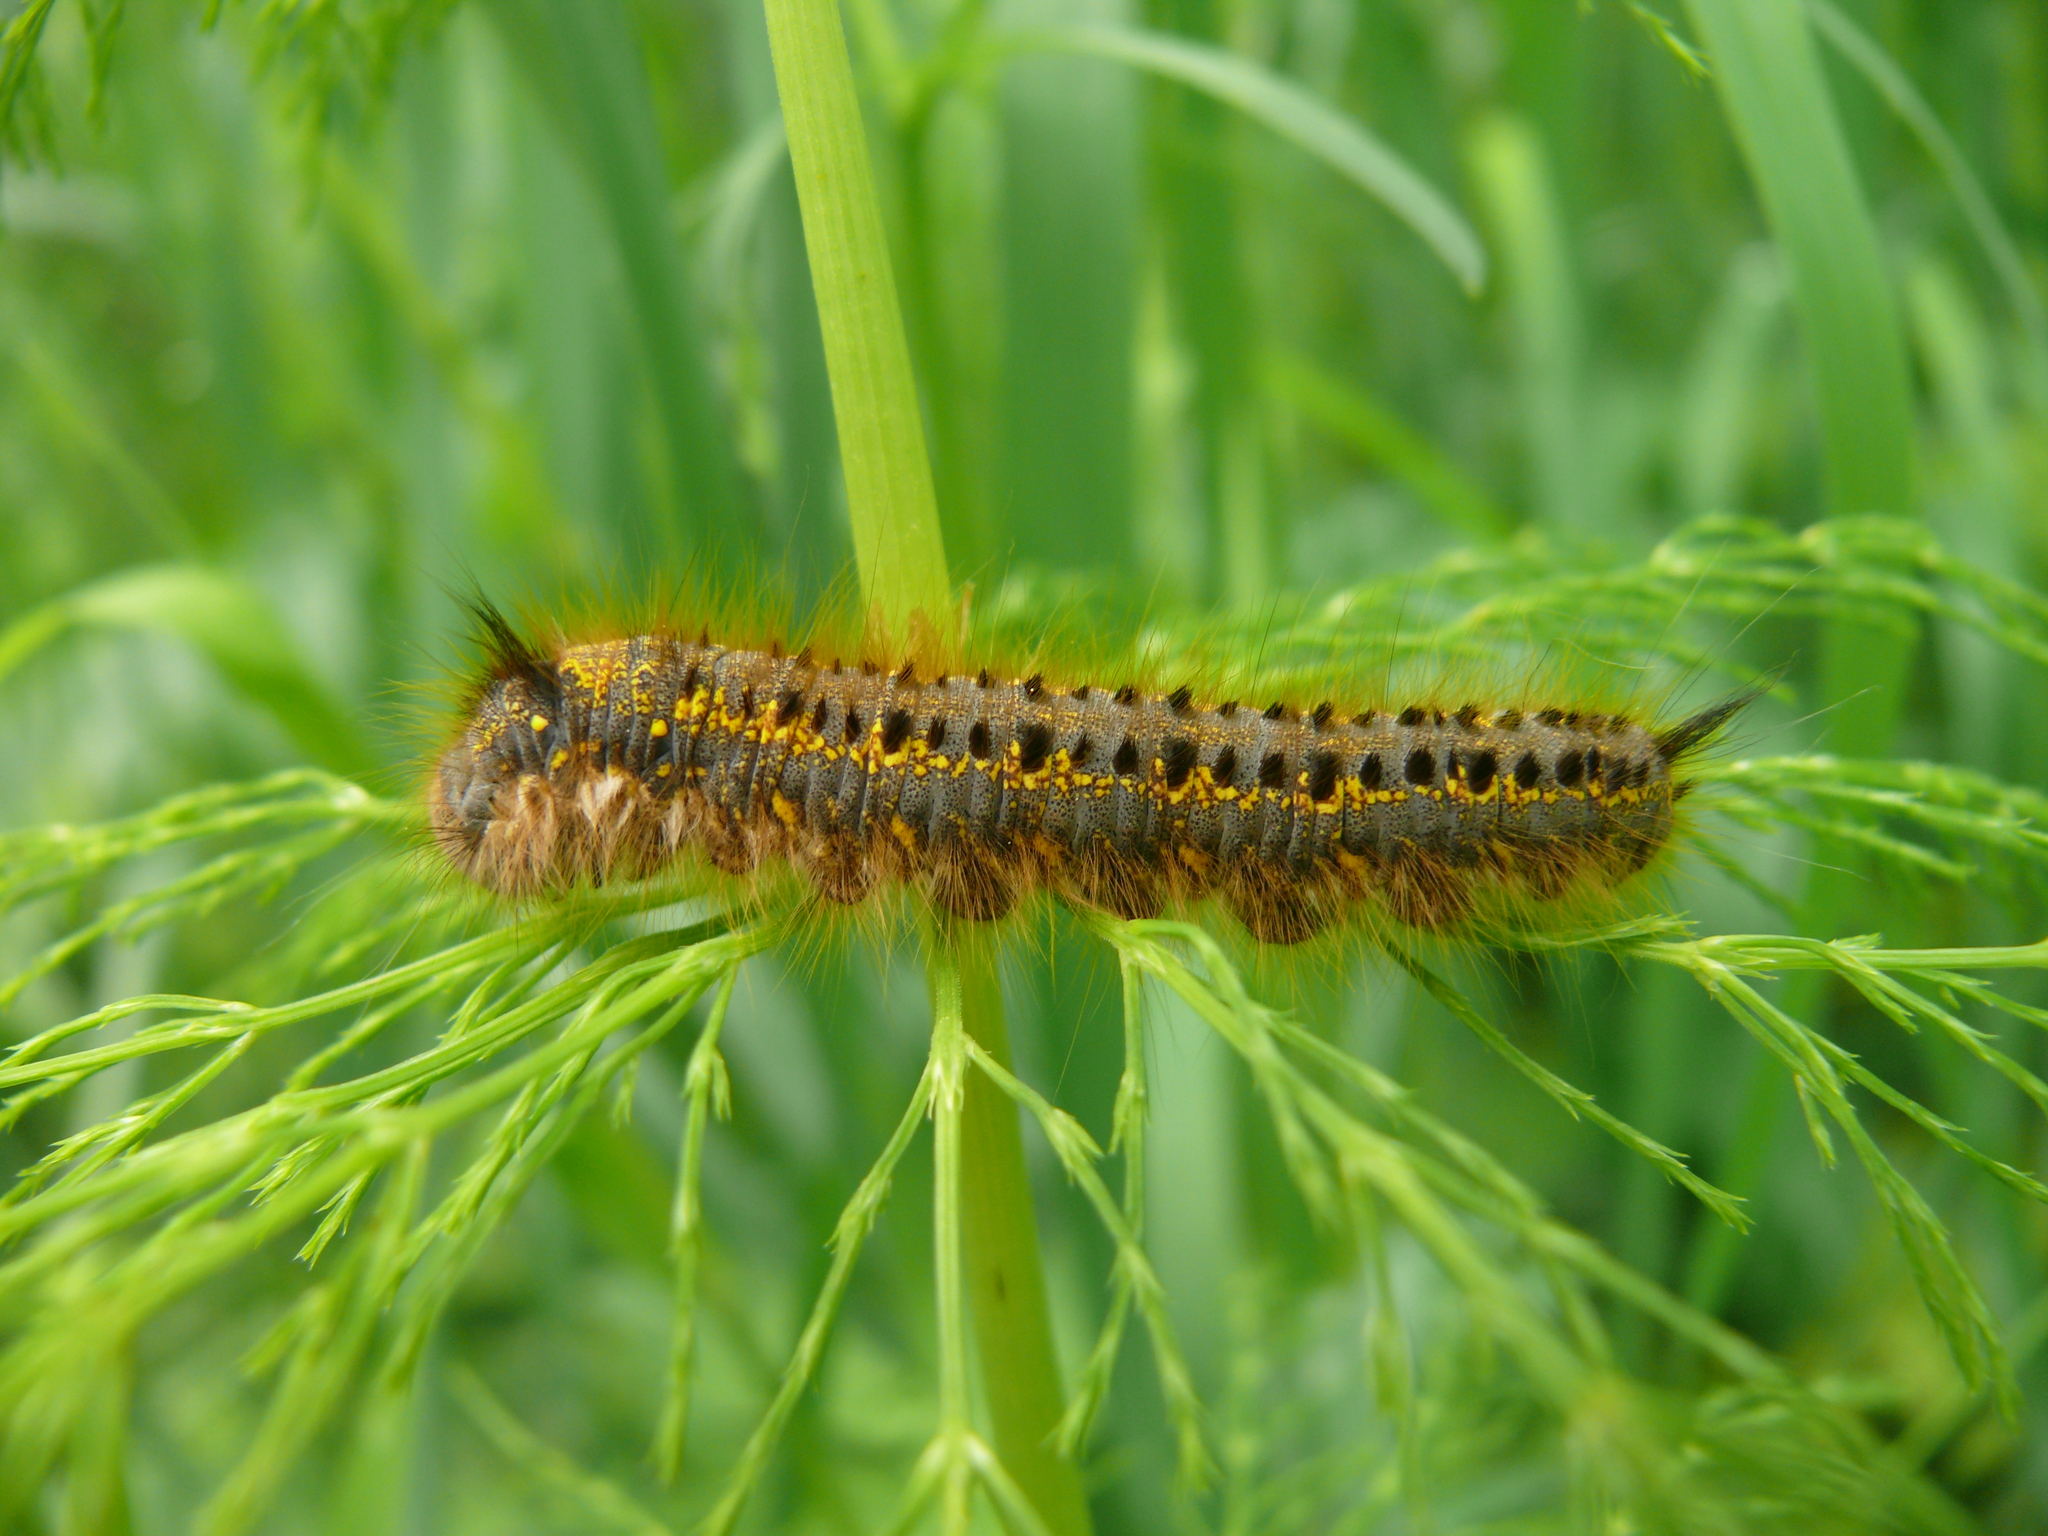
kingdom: Animalia
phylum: Arthropoda
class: Insecta
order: Lepidoptera
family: Lasiocampidae
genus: Euthrix
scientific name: Euthrix potatoria
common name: Drinker
